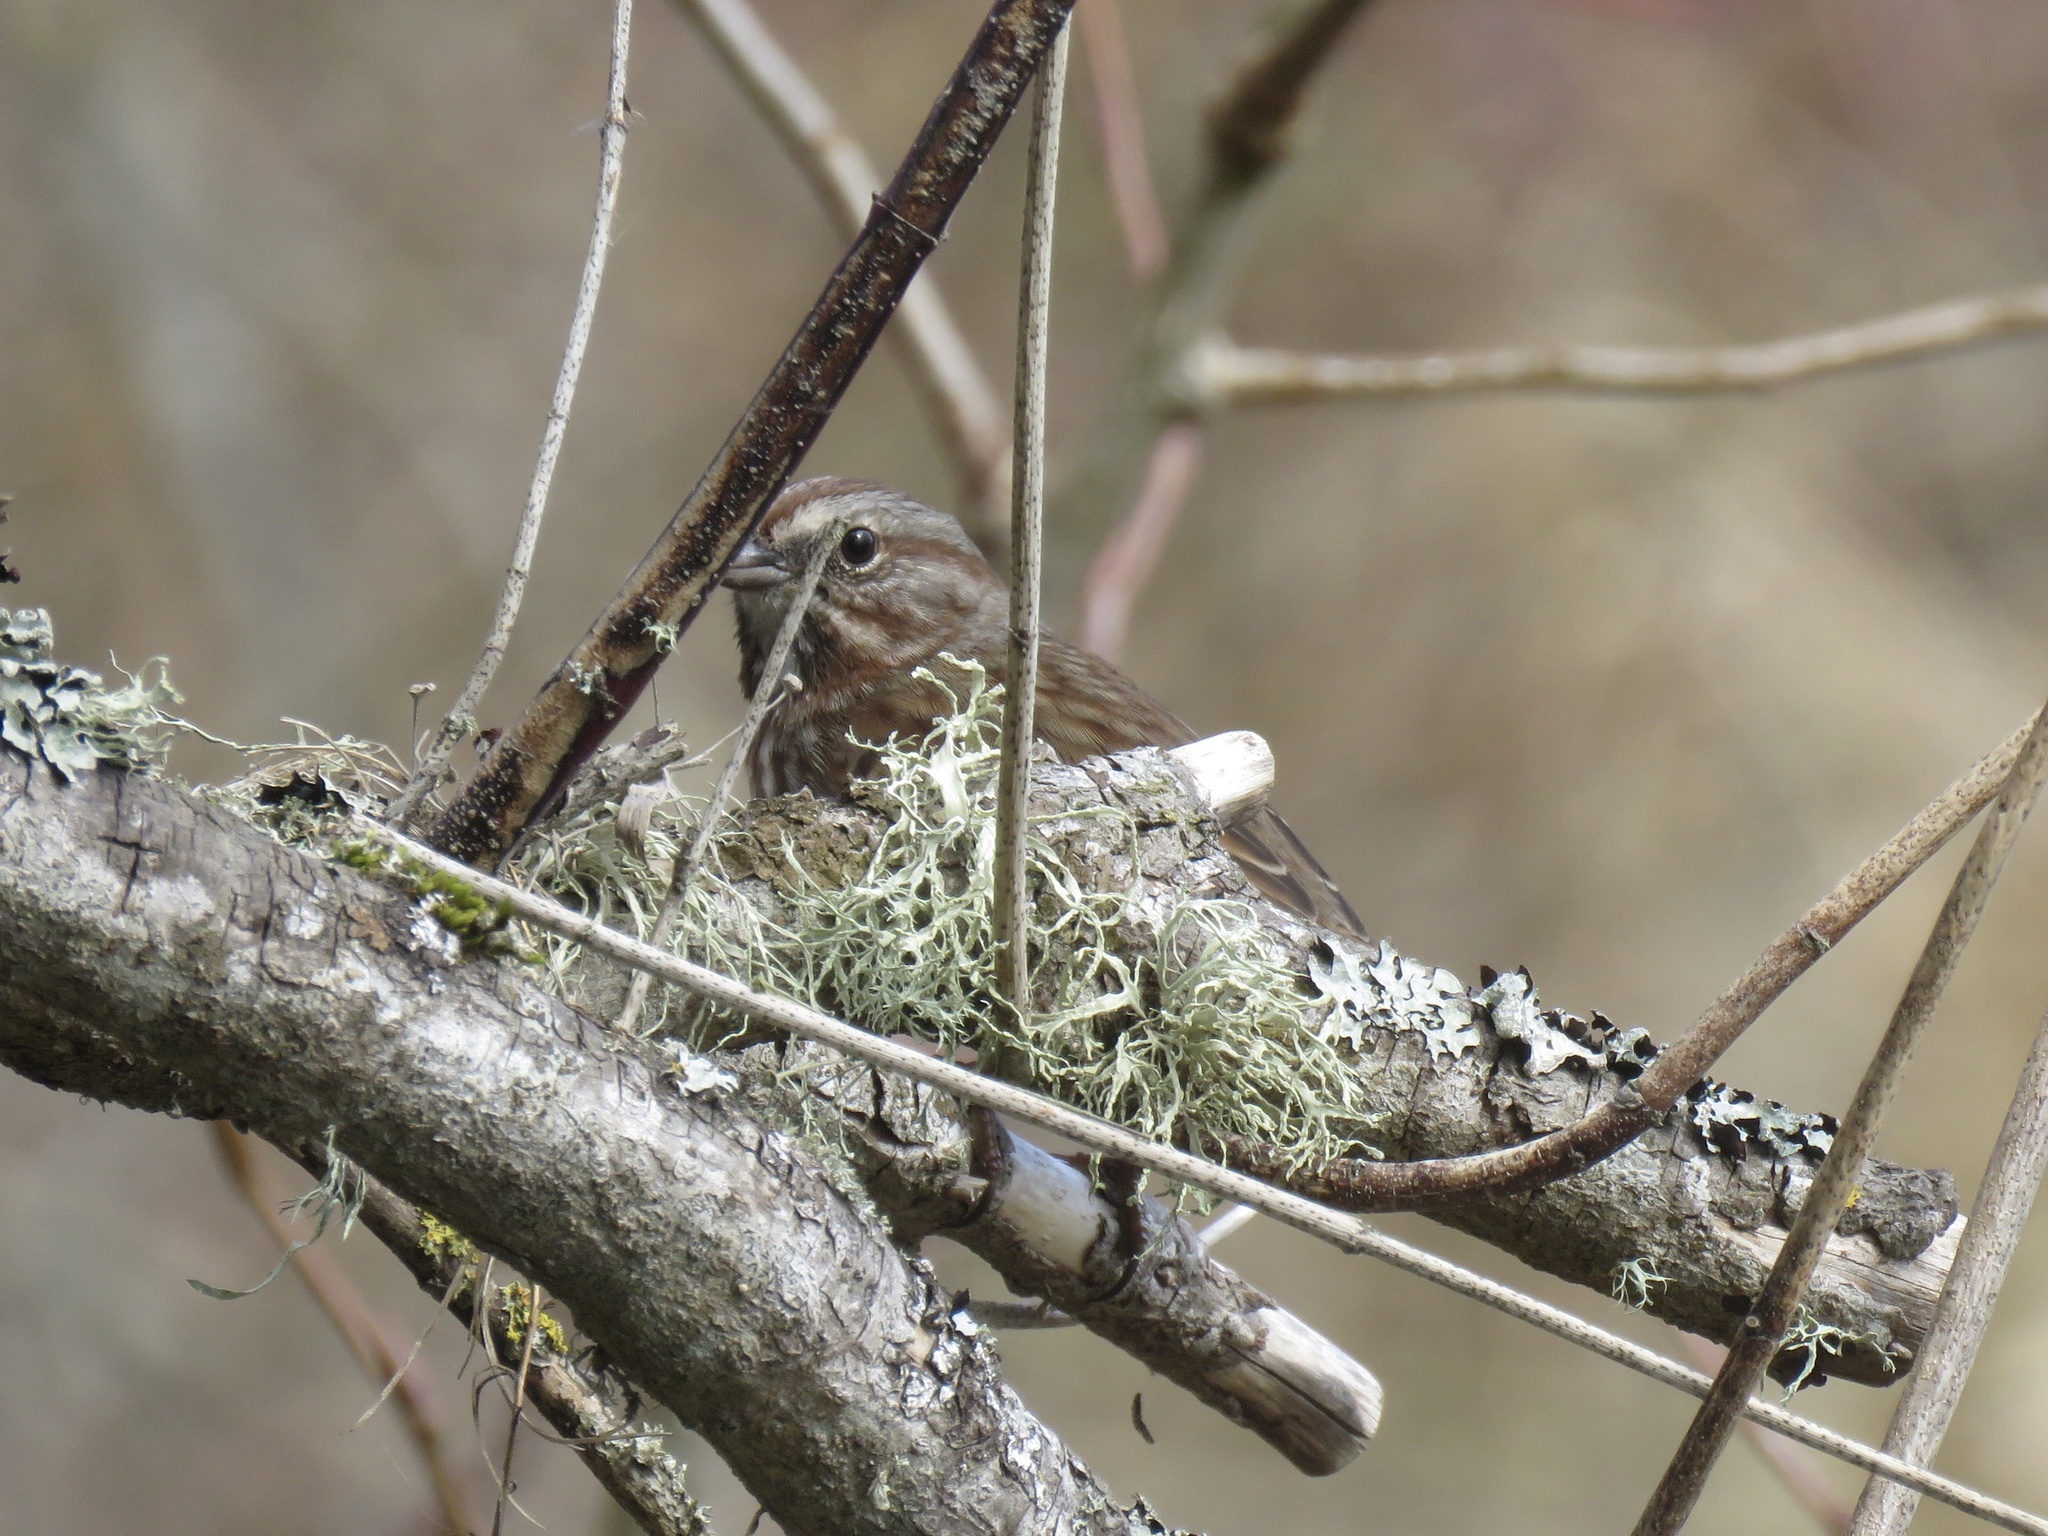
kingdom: Animalia
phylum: Chordata
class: Aves
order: Passeriformes
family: Passerellidae
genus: Melospiza
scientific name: Melospiza melodia
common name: Song sparrow
